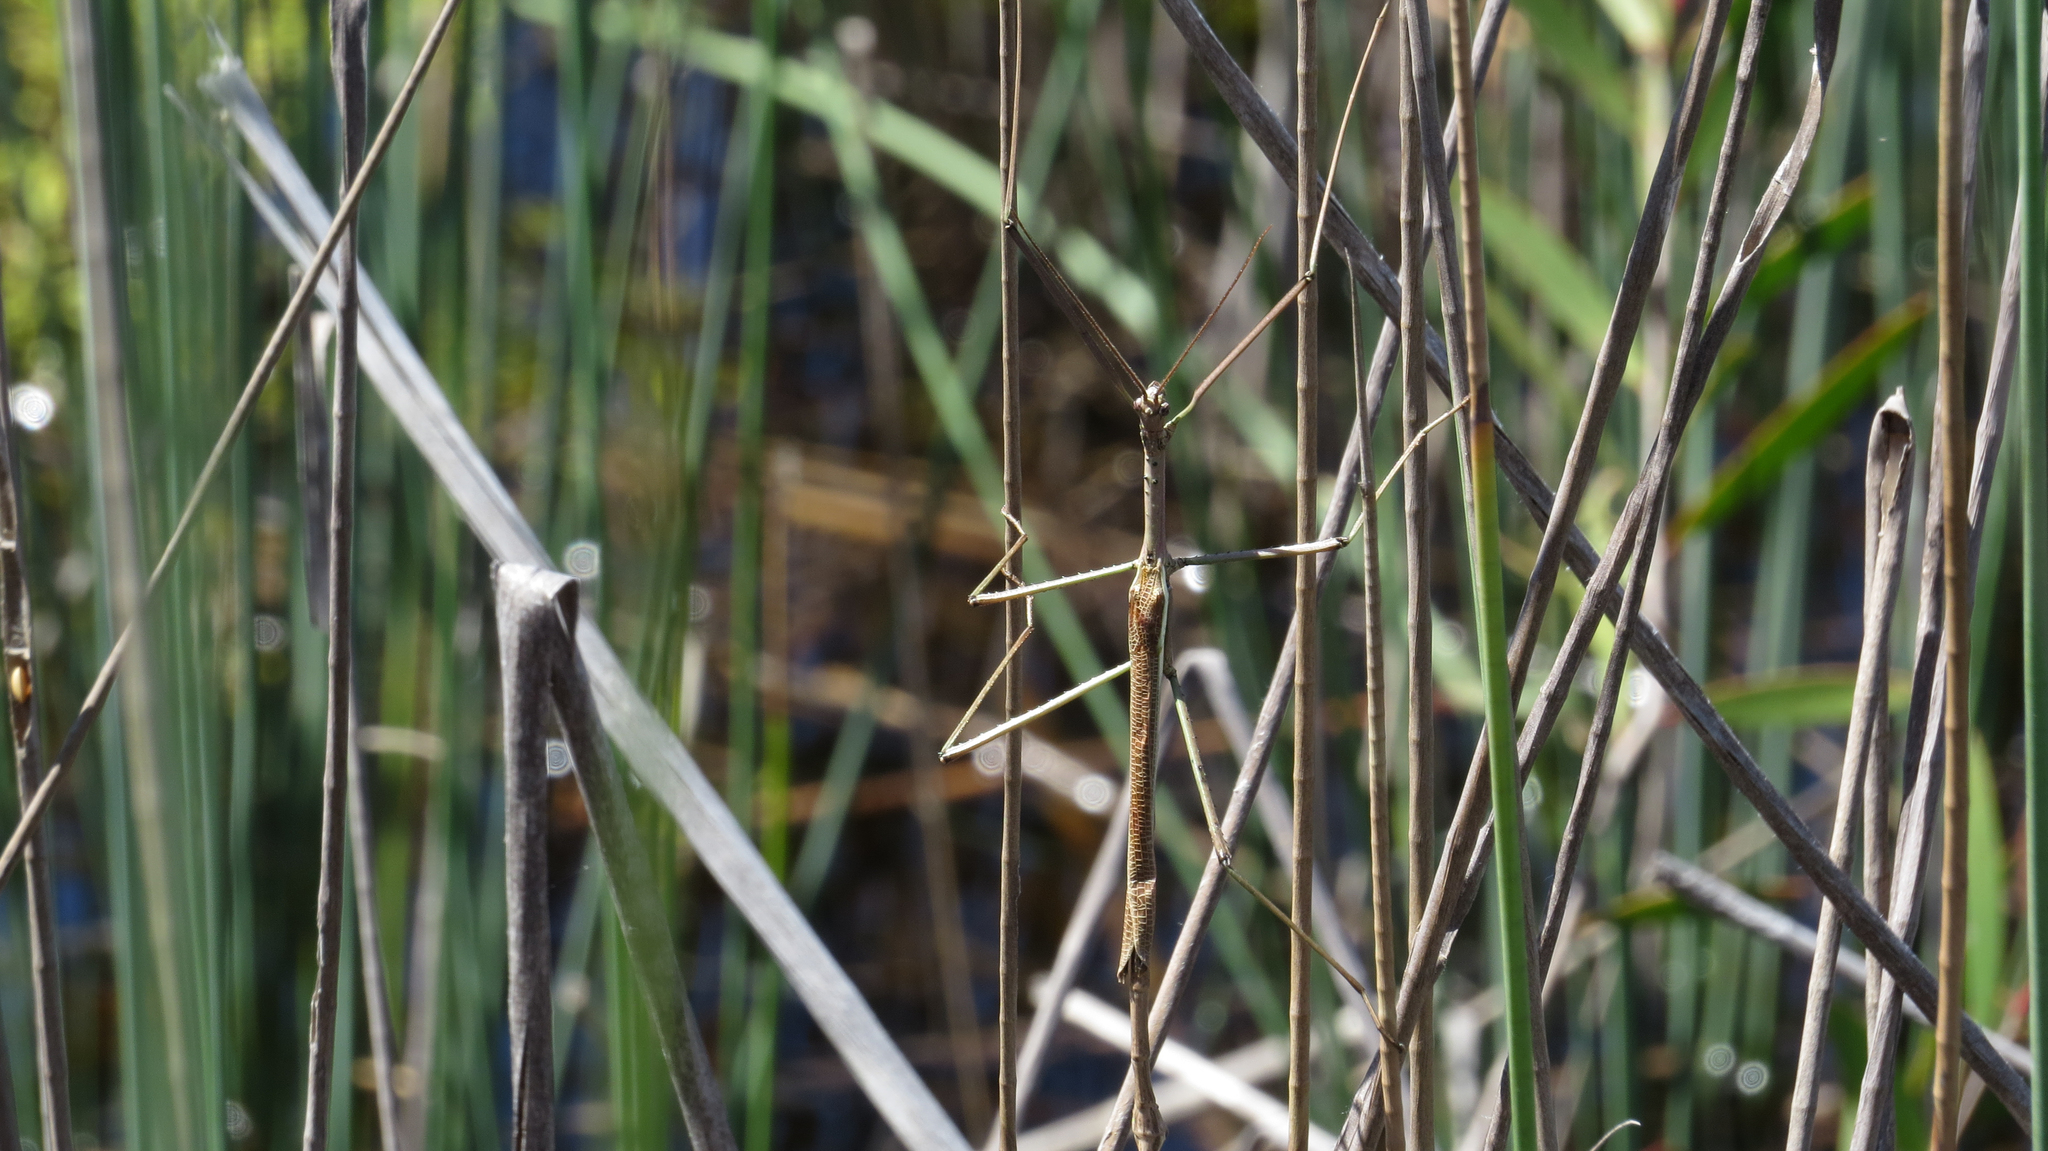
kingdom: Animalia
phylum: Arthropoda
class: Insecta
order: Phasmida
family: Phasmatidae
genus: Anchiale
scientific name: Anchiale austrotessulata
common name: Tessellated stick-insect
